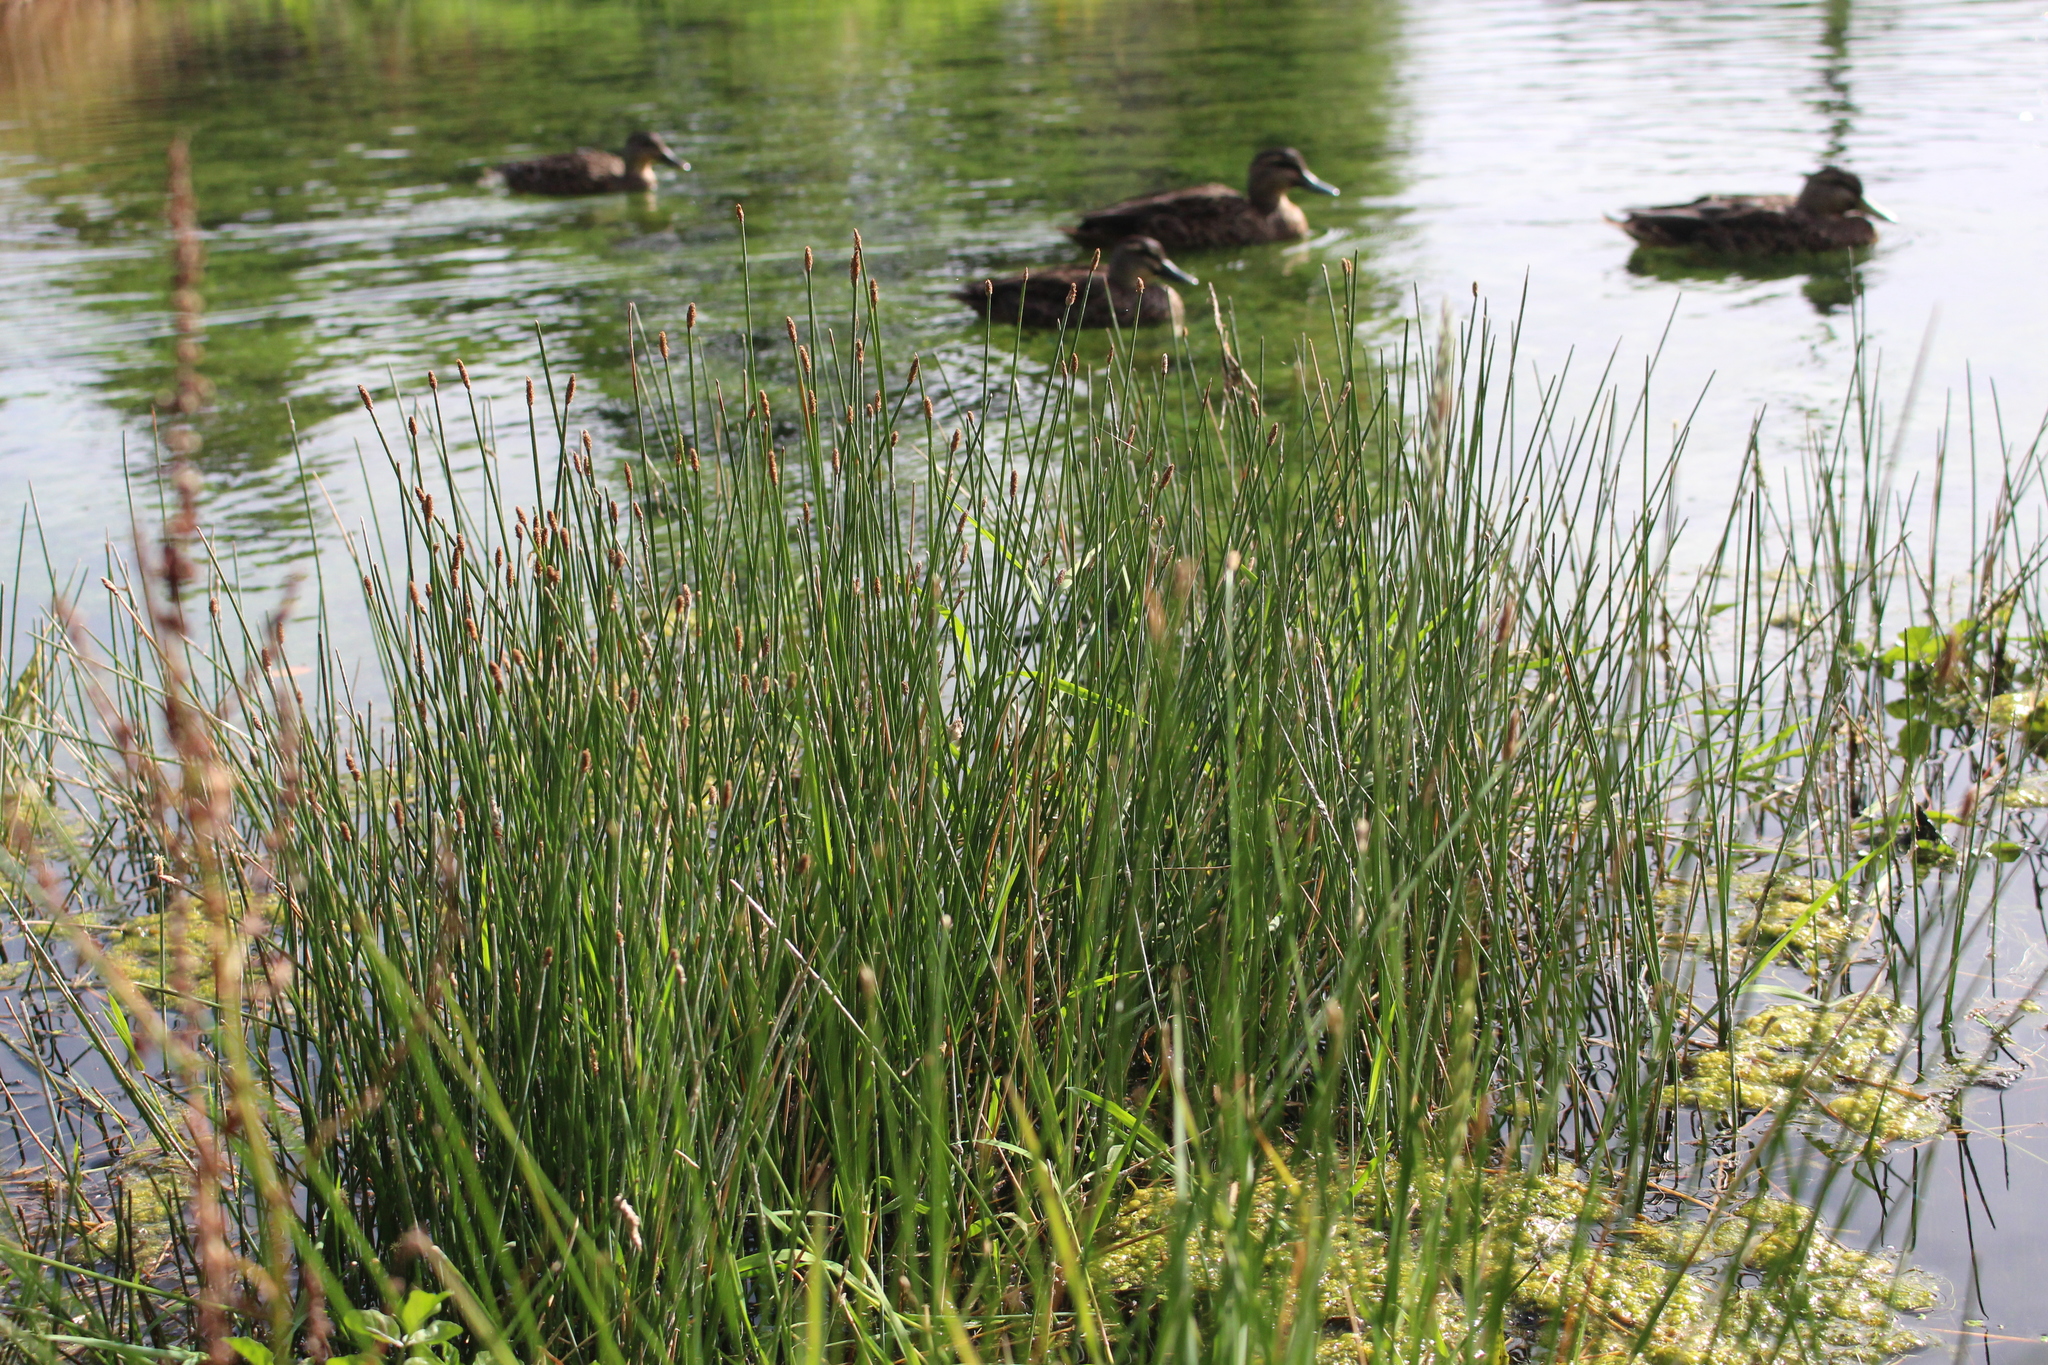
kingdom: Plantae
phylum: Tracheophyta
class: Liliopsida
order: Poales
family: Cyperaceae
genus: Eleocharis
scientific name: Eleocharis acuta
